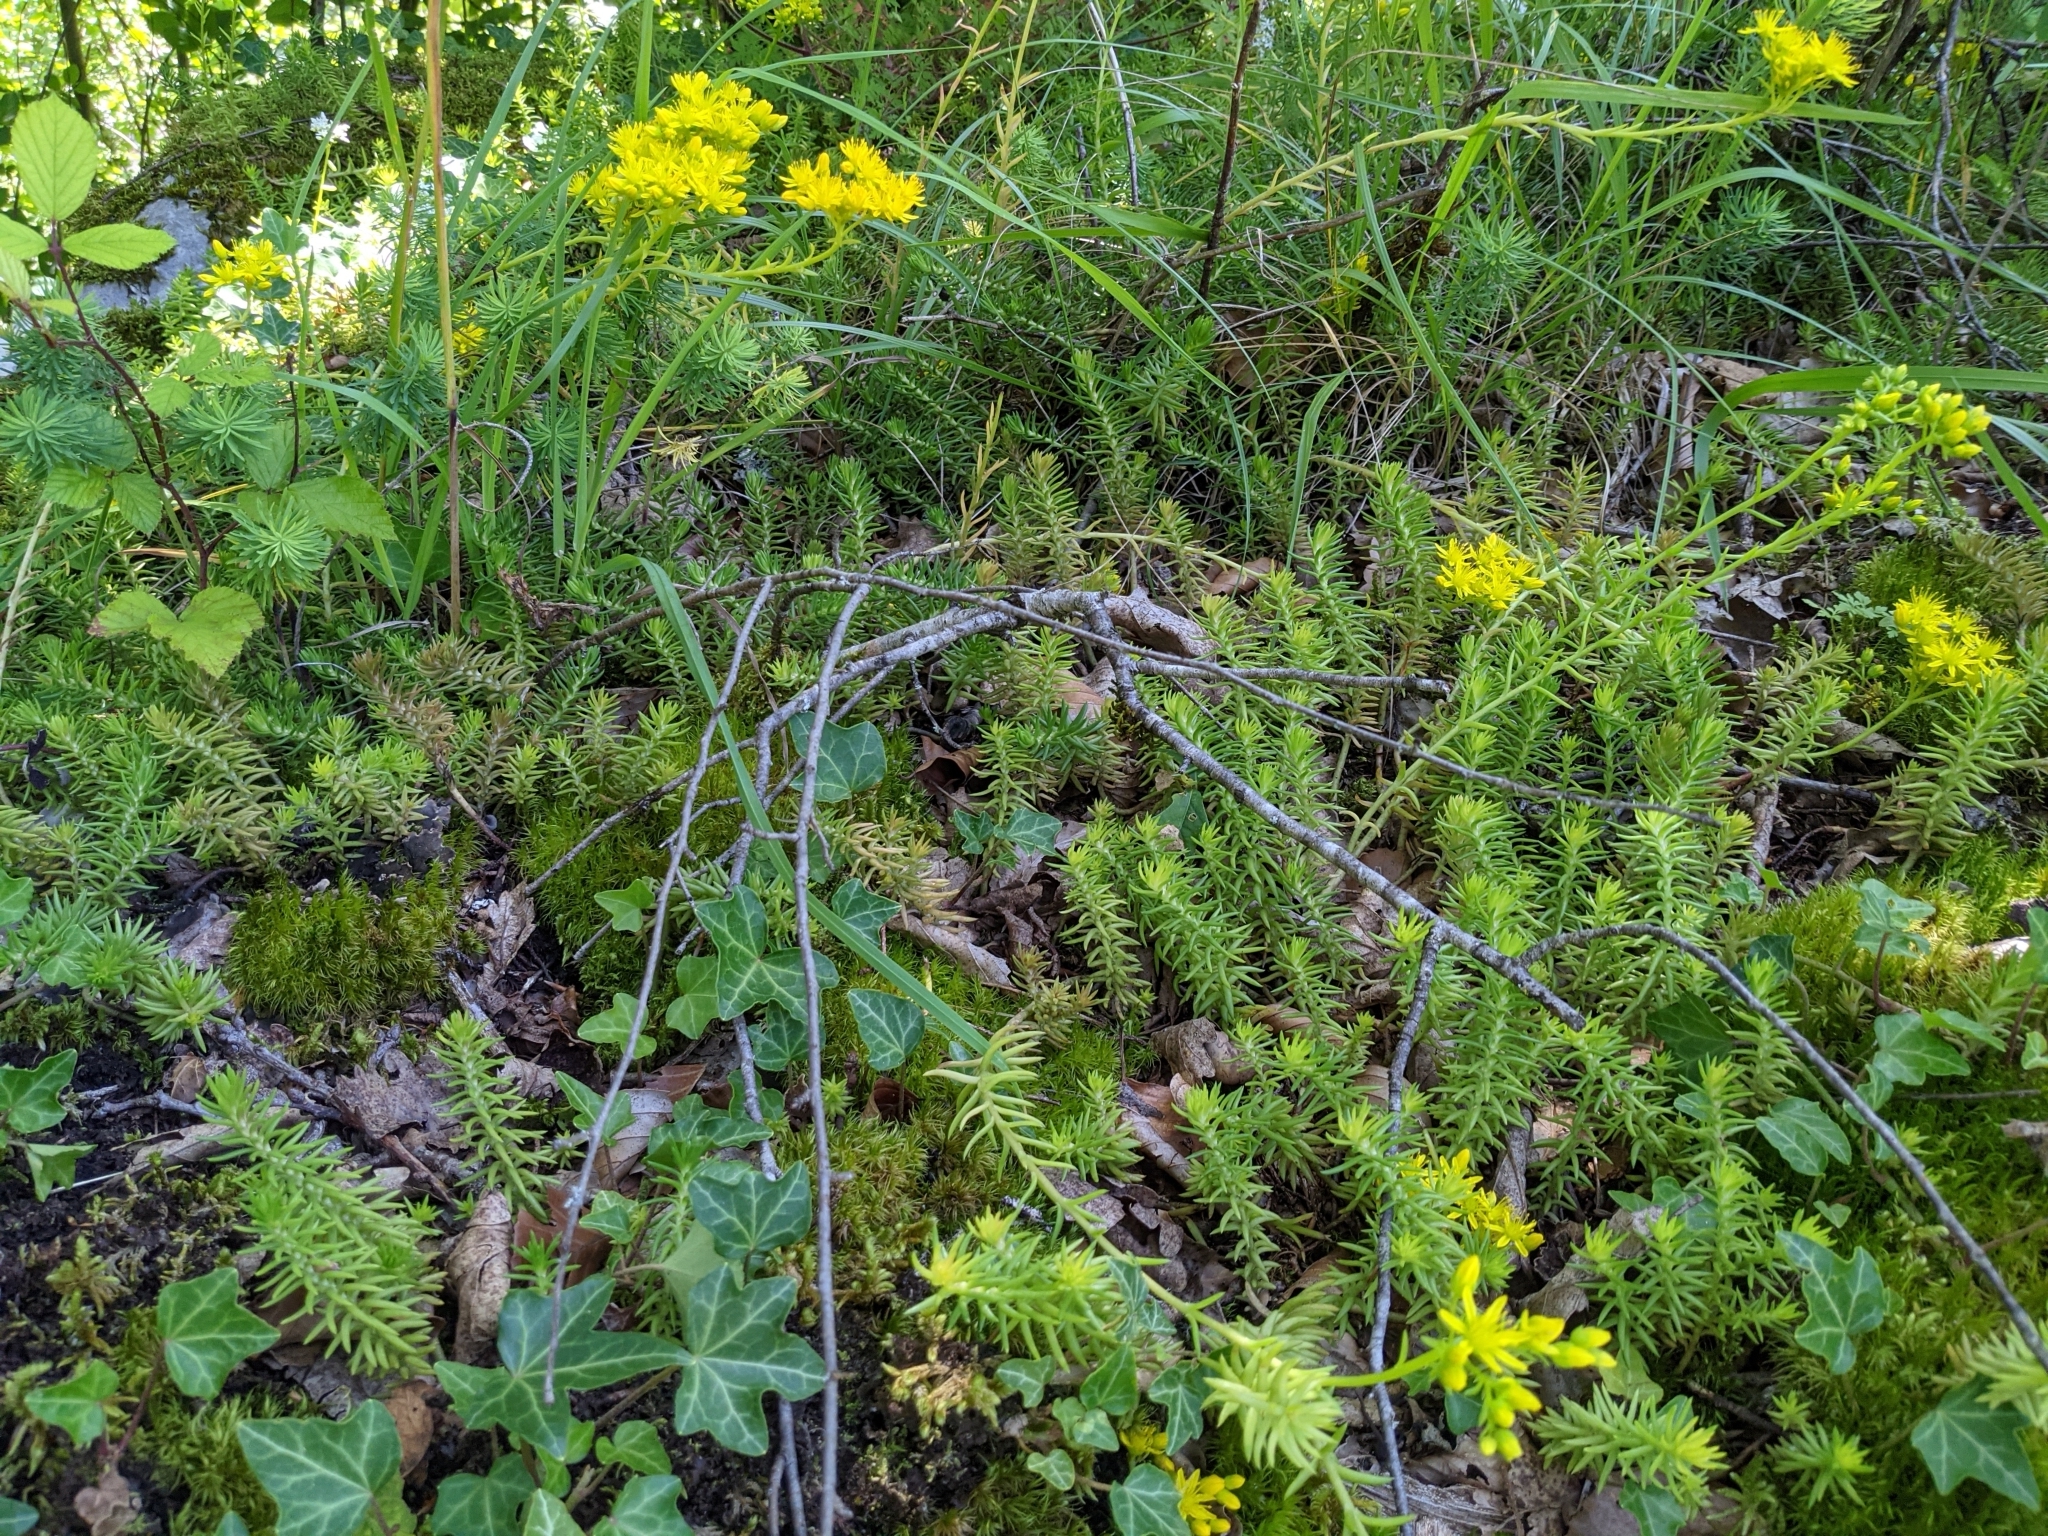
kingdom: Plantae
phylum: Tracheophyta
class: Magnoliopsida
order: Saxifragales
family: Crassulaceae
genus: Petrosedum
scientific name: Petrosedum rupestre
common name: Jenny's stonecrop
